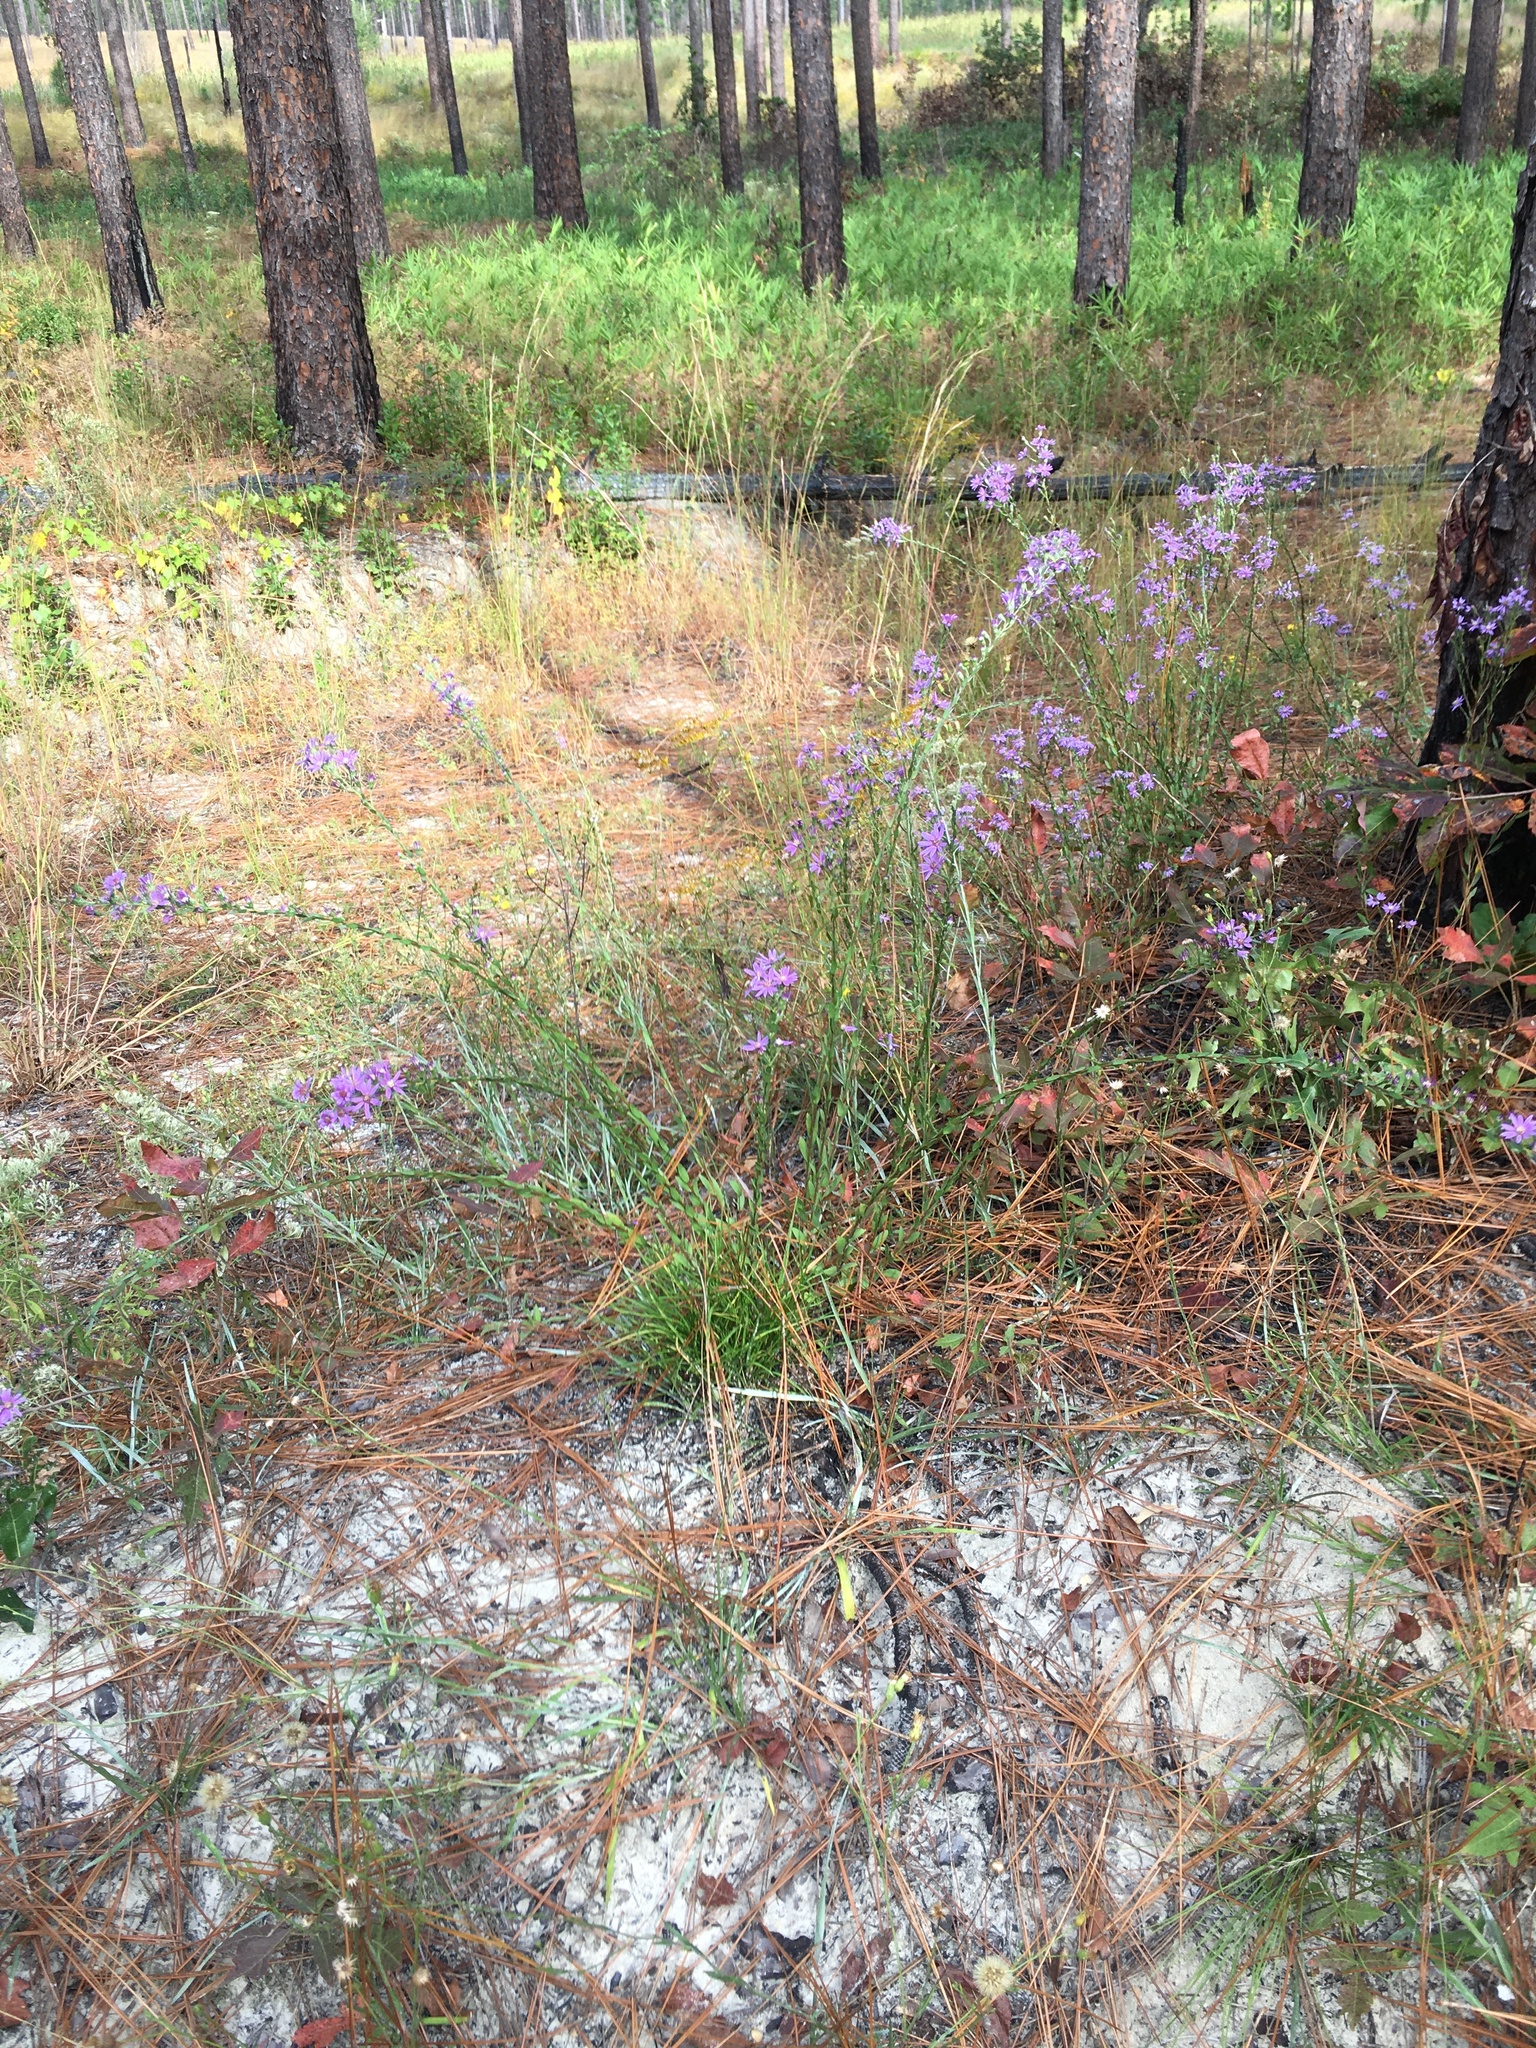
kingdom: Plantae
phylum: Tracheophyta
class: Magnoliopsida
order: Asterales
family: Asteraceae
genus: Symphyotrichum
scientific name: Symphyotrichum concolor
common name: Eastern silver aster
